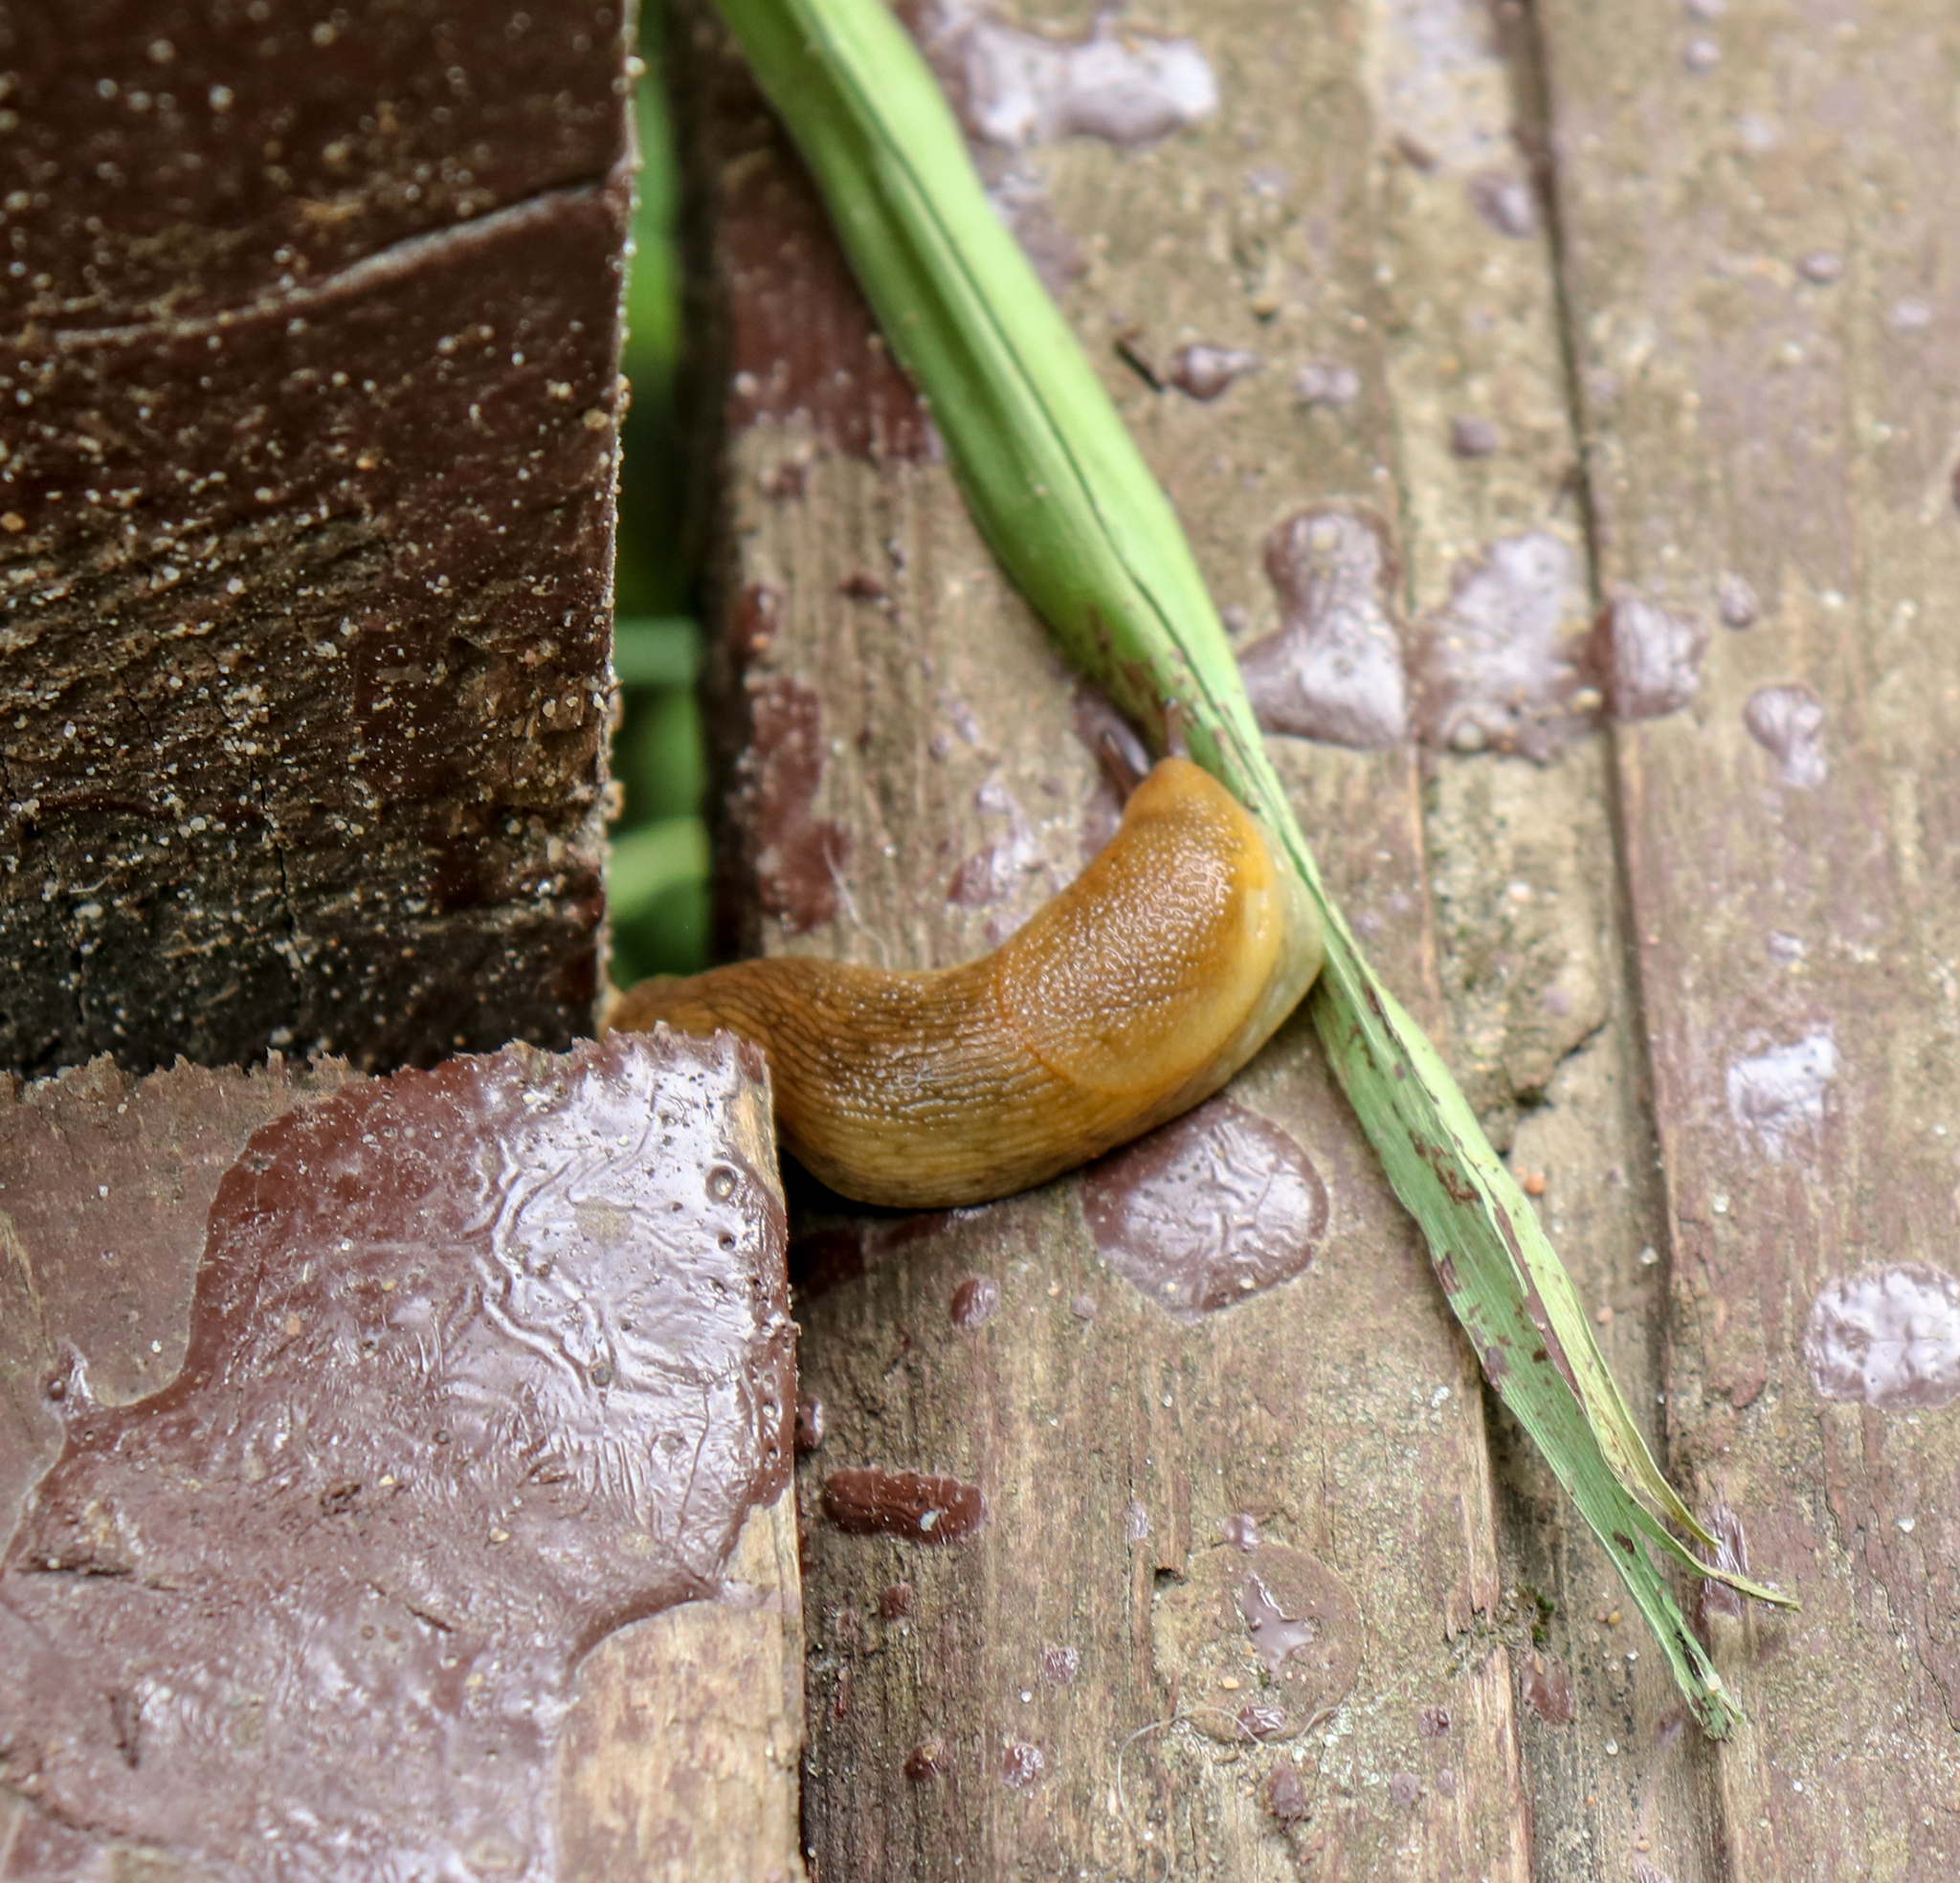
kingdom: Animalia
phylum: Mollusca
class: Gastropoda
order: Stylommatophora
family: Arionidae
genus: Arion
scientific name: Arion fuscus
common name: Northern dusky slug
